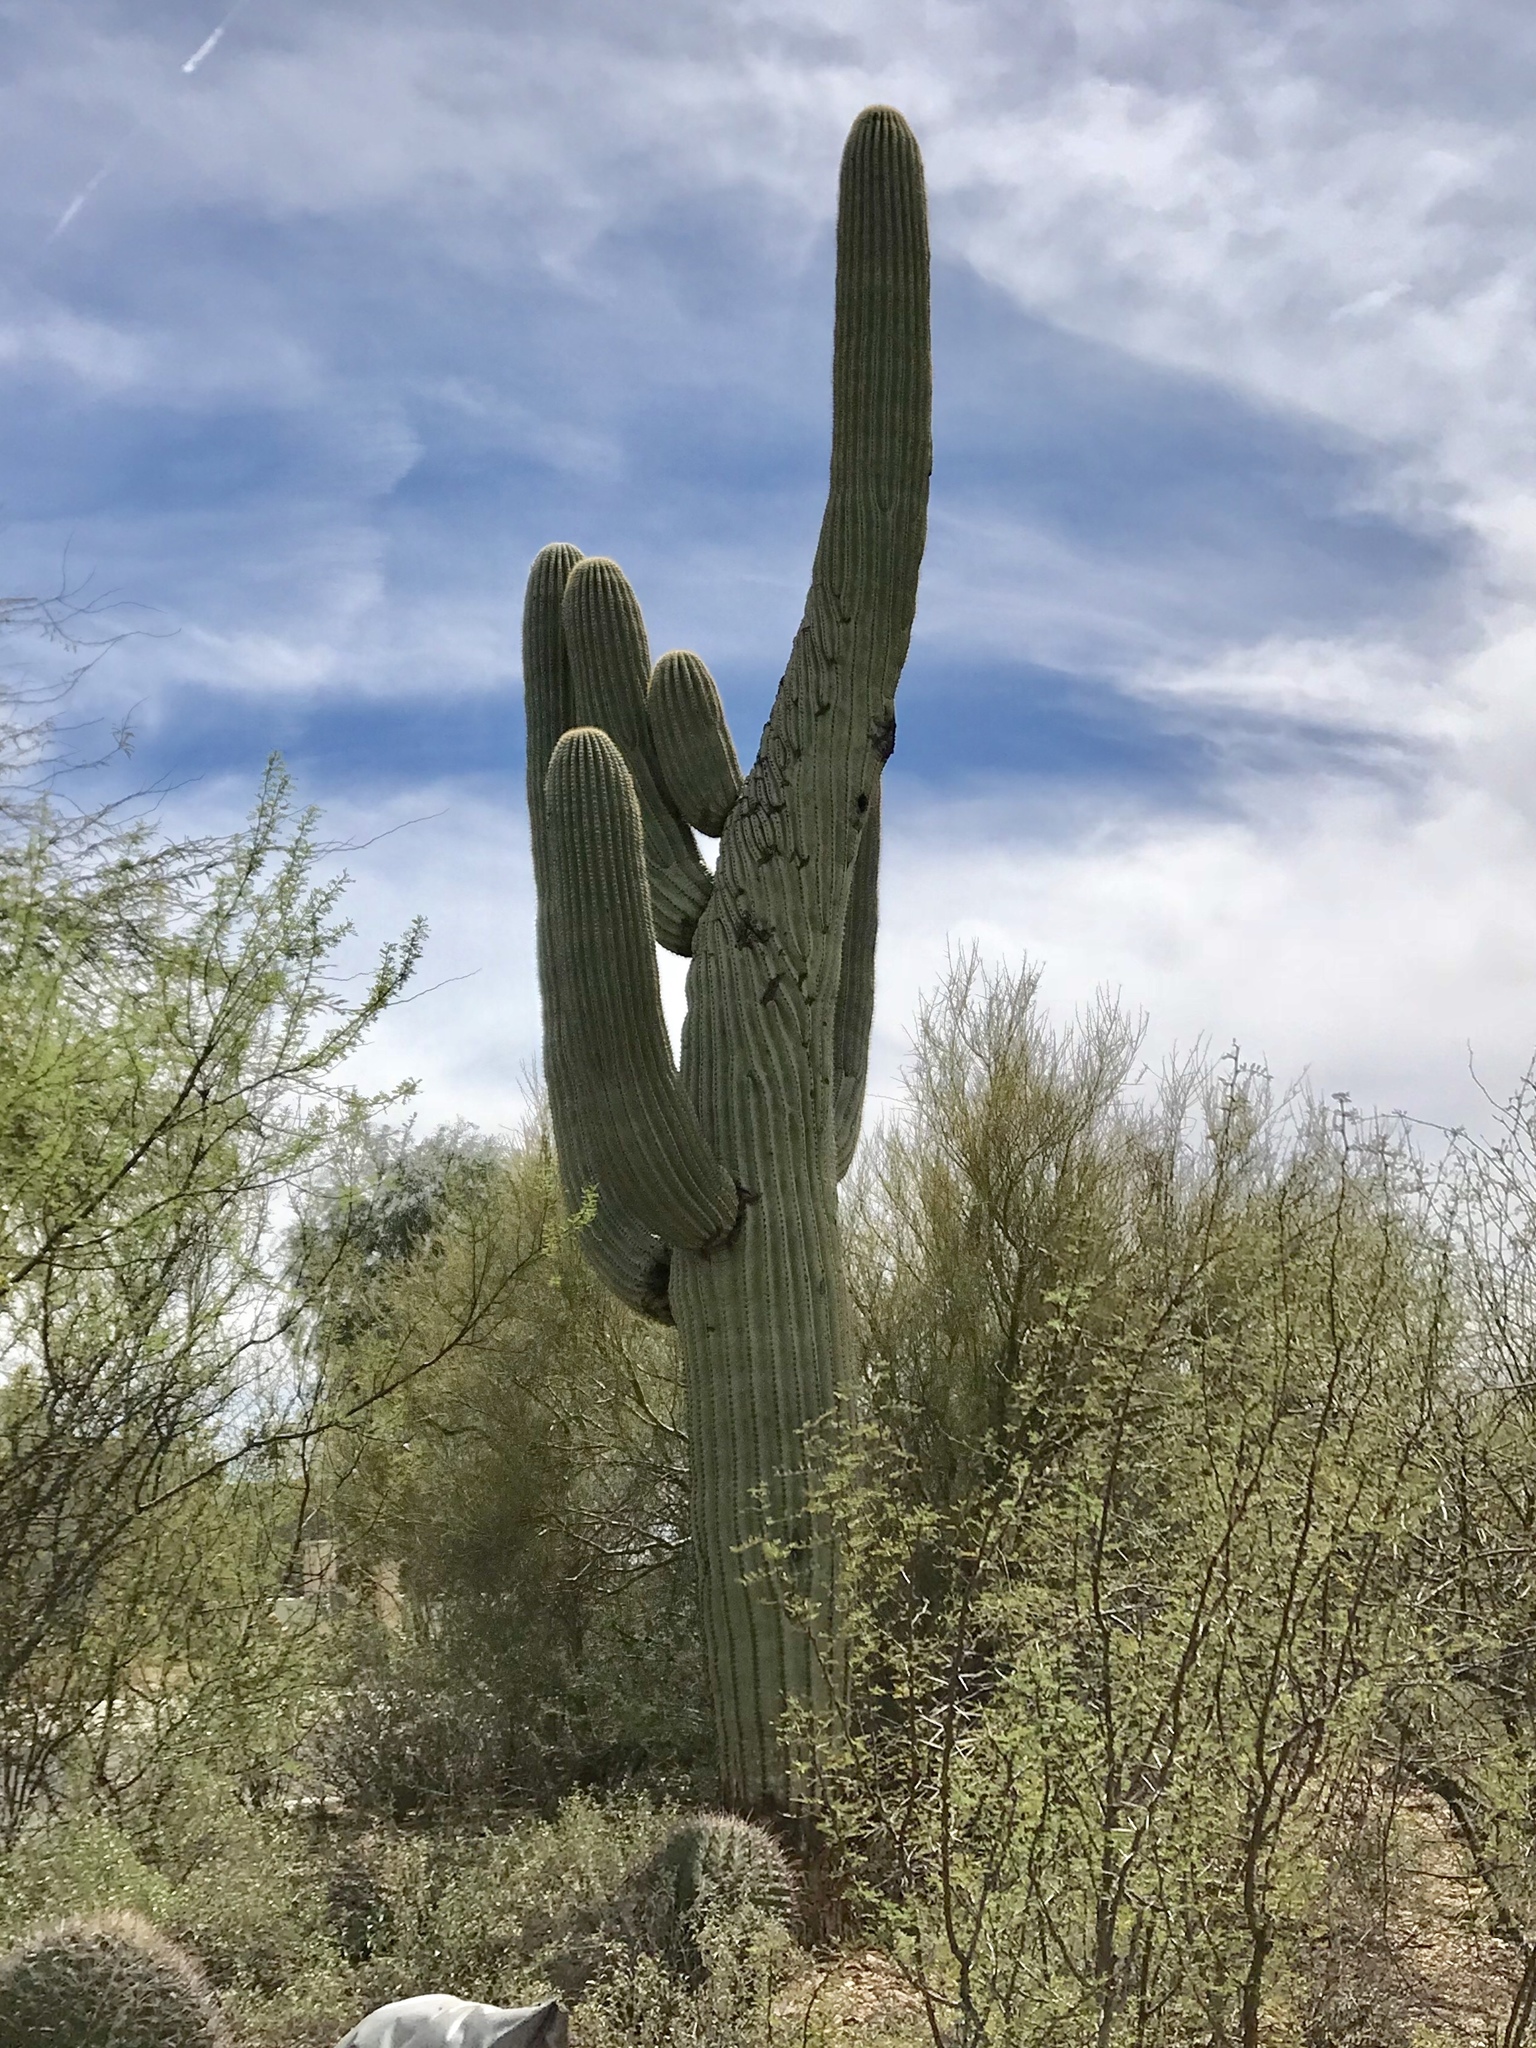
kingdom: Plantae
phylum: Tracheophyta
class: Magnoliopsida
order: Caryophyllales
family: Cactaceae
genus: Carnegiea
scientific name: Carnegiea gigantea
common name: Saguaro
